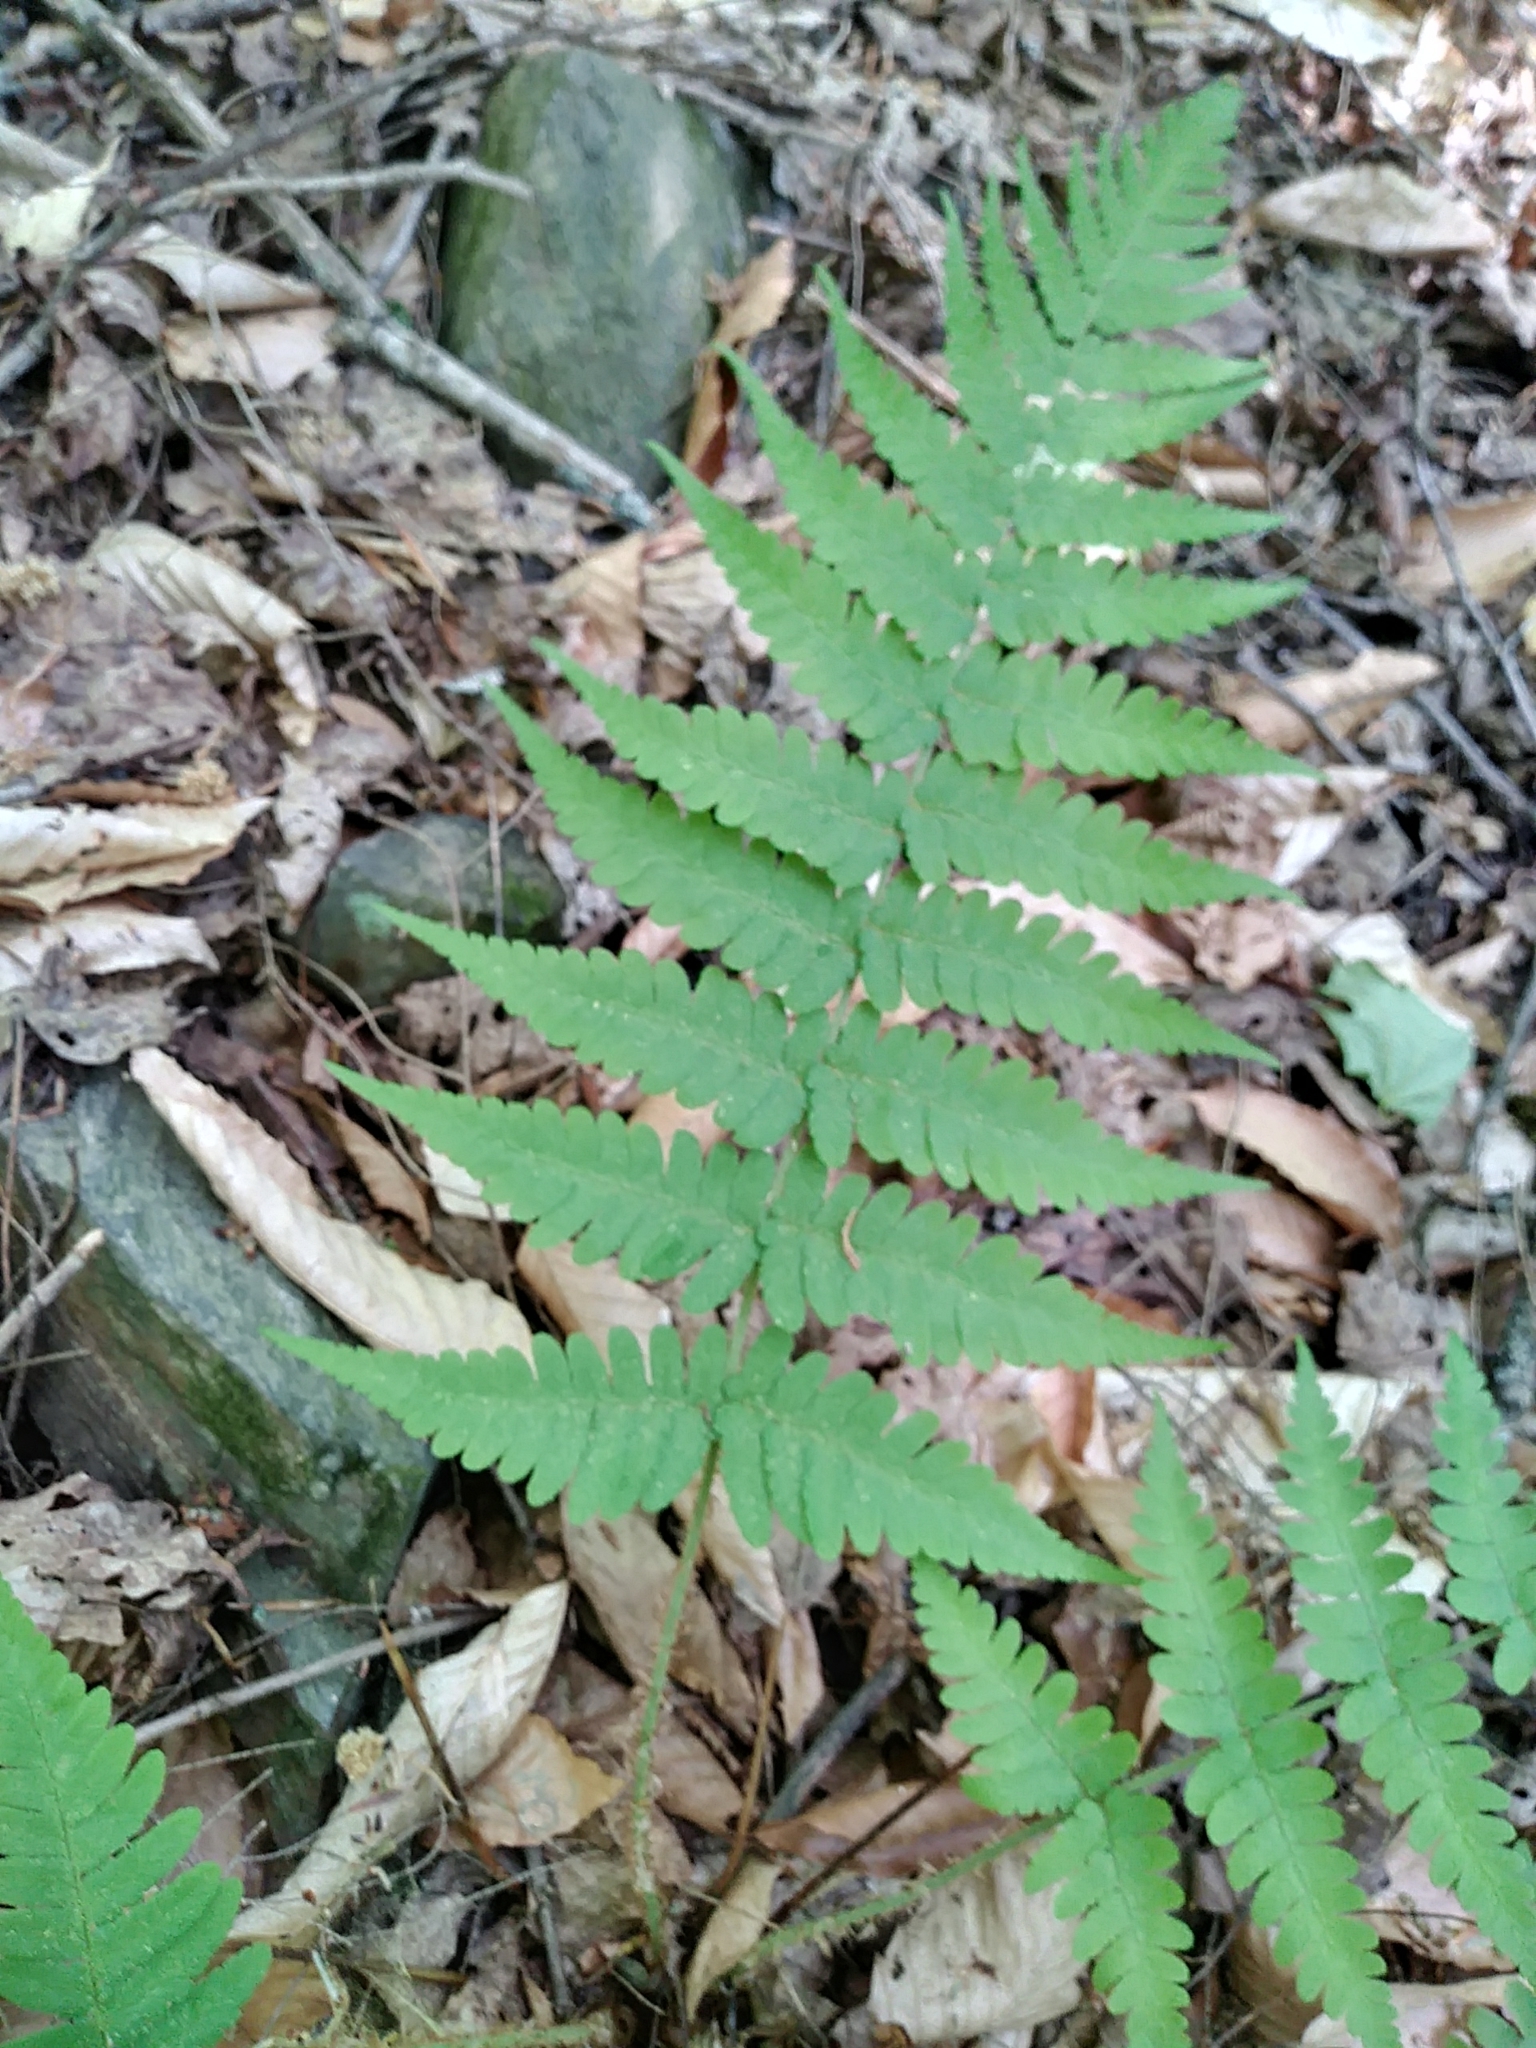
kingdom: Plantae
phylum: Tracheophyta
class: Polypodiopsida
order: Polypodiales
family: Dryopteridaceae
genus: Dryopteris
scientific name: Dryopteris marginalis
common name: Marginal wood fern
